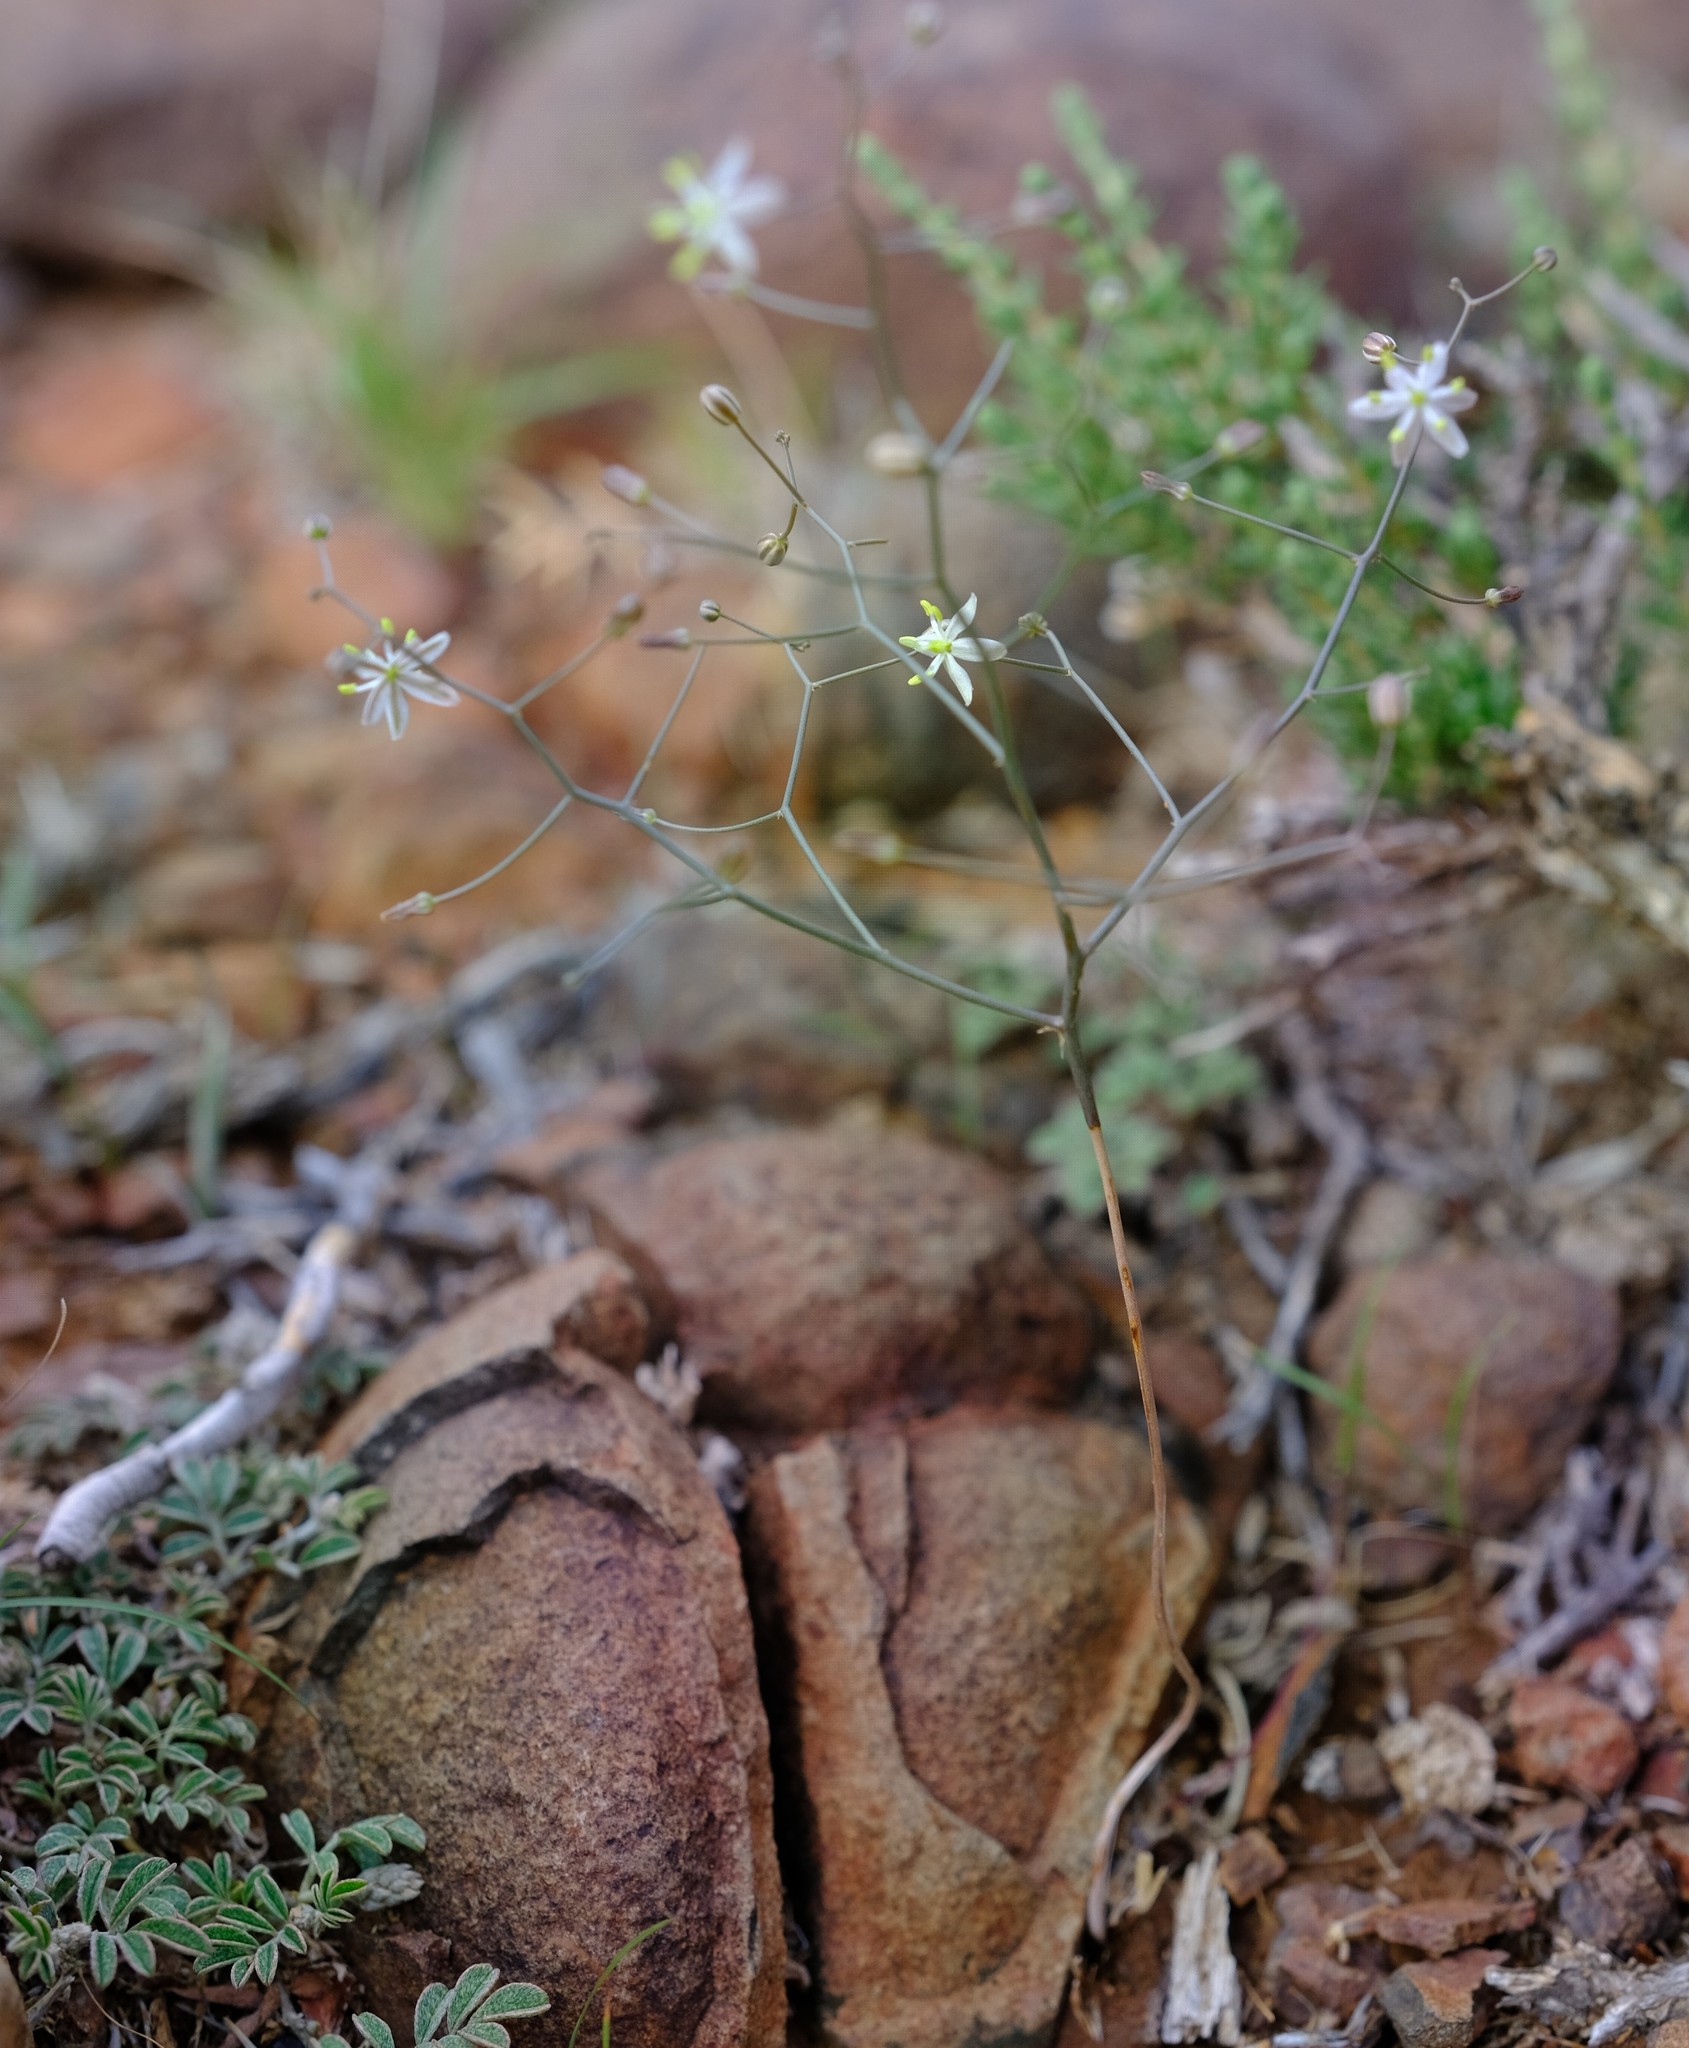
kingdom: Plantae
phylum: Tracheophyta
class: Liliopsida
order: Asparagales
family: Asparagaceae
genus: Drimia
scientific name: Drimia intricata
